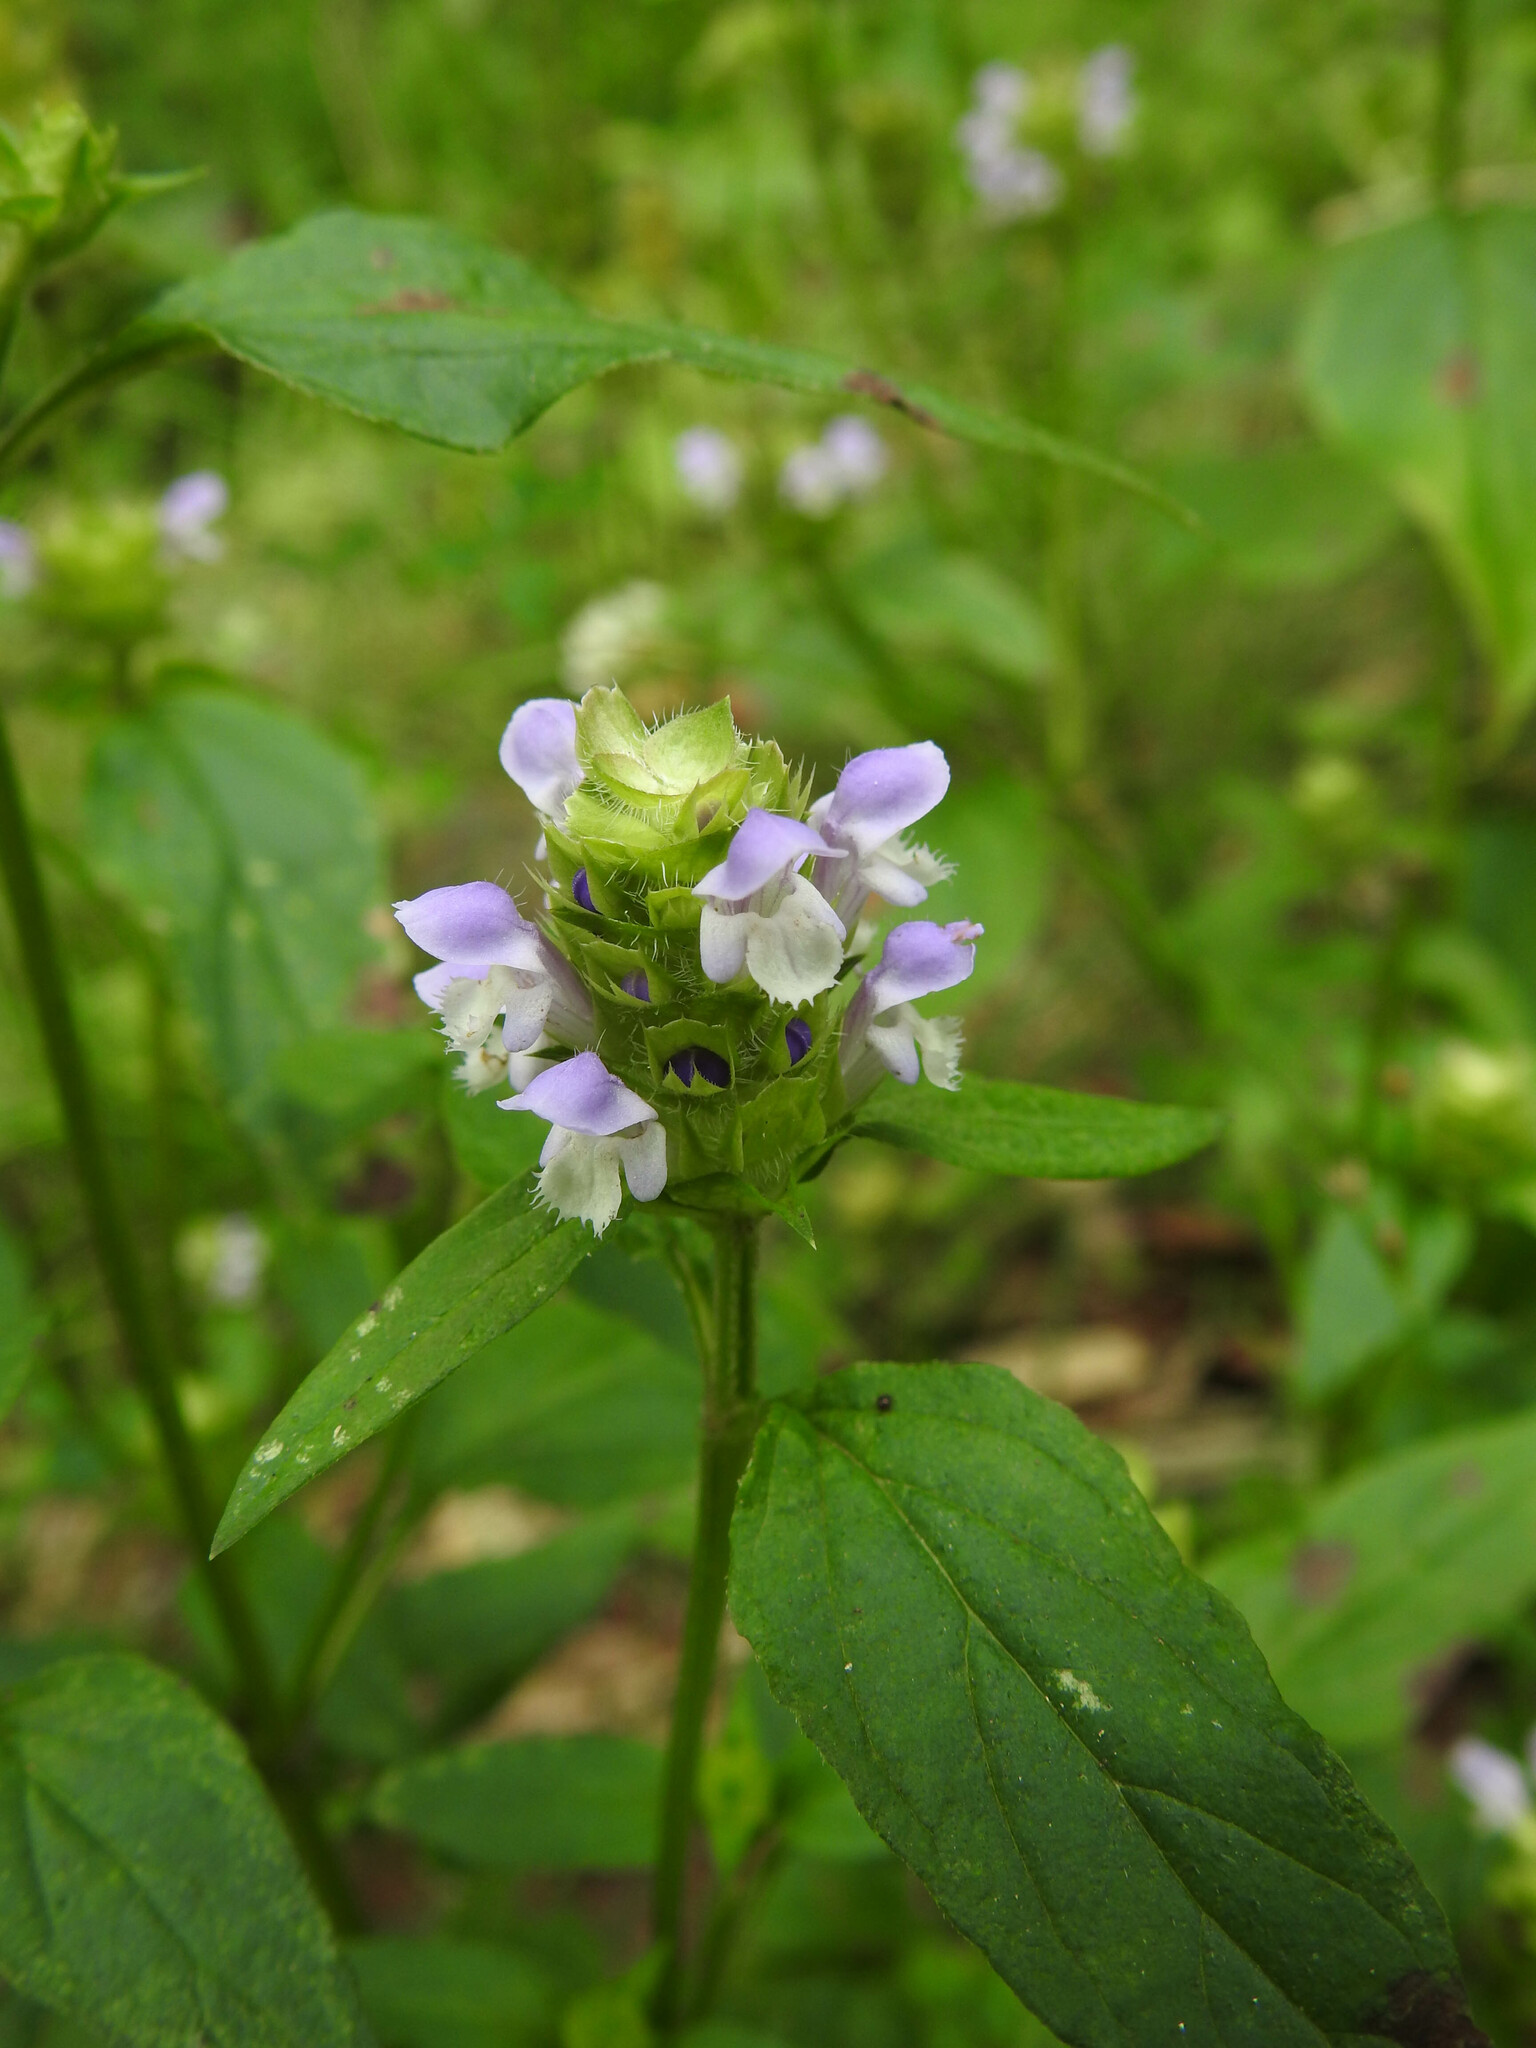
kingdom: Plantae
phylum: Tracheophyta
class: Magnoliopsida
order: Lamiales
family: Lamiaceae
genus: Prunella
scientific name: Prunella vulgaris
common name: Heal-all
